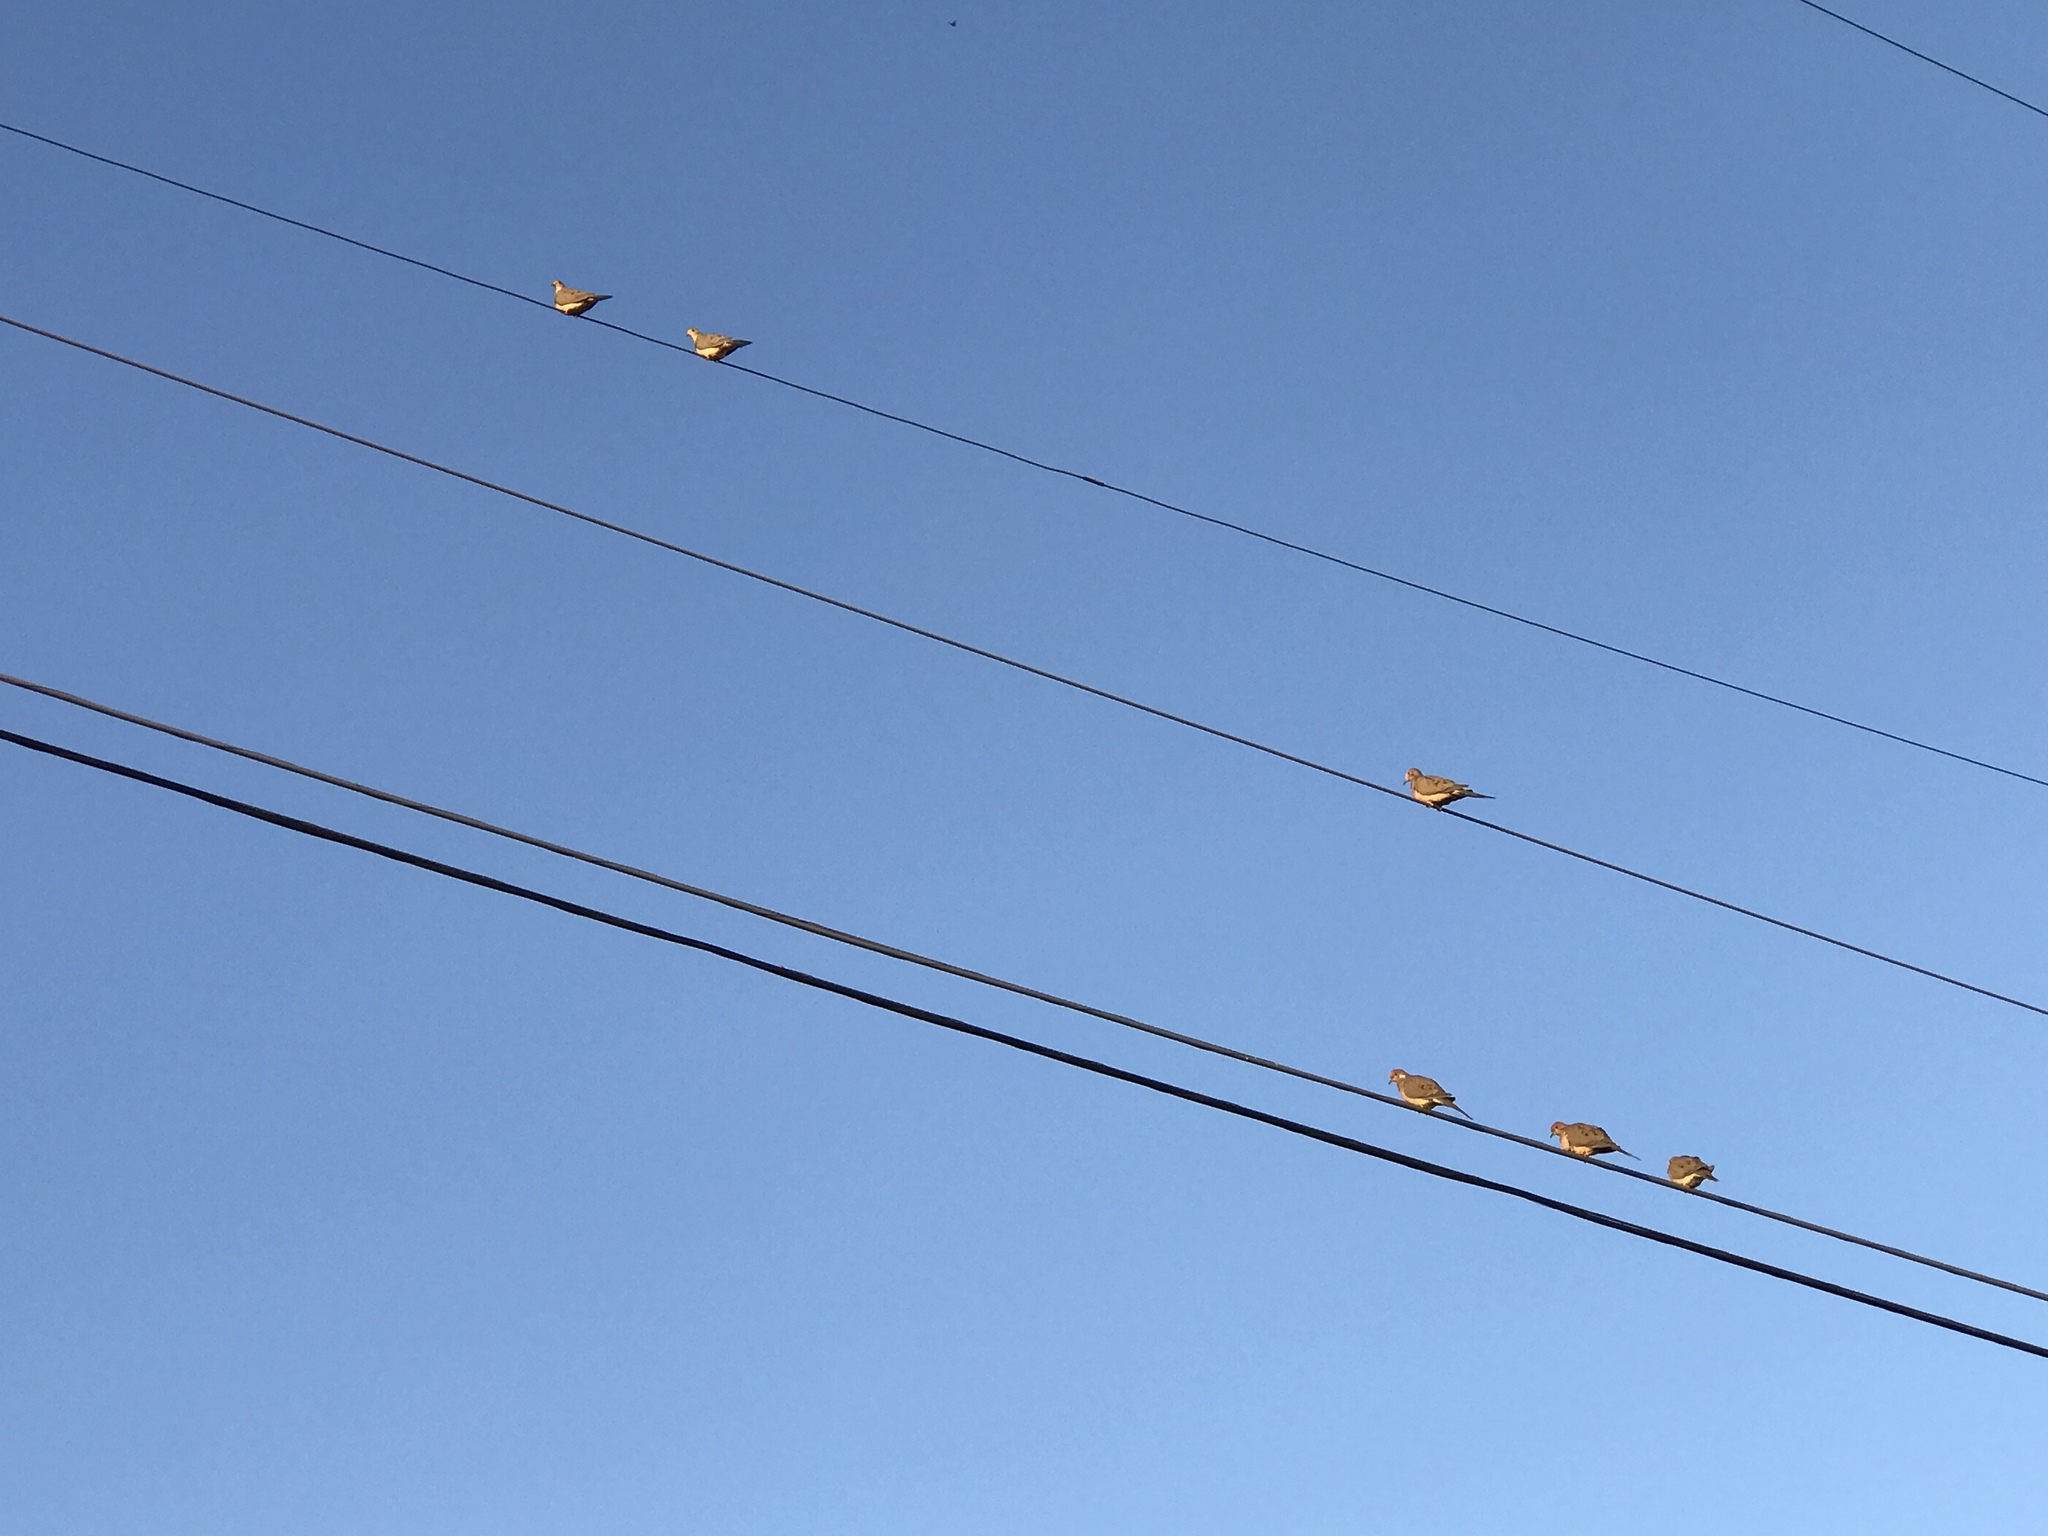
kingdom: Animalia
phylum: Chordata
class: Aves
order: Columbiformes
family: Columbidae
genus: Zenaida
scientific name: Zenaida macroura
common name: Mourning dove
